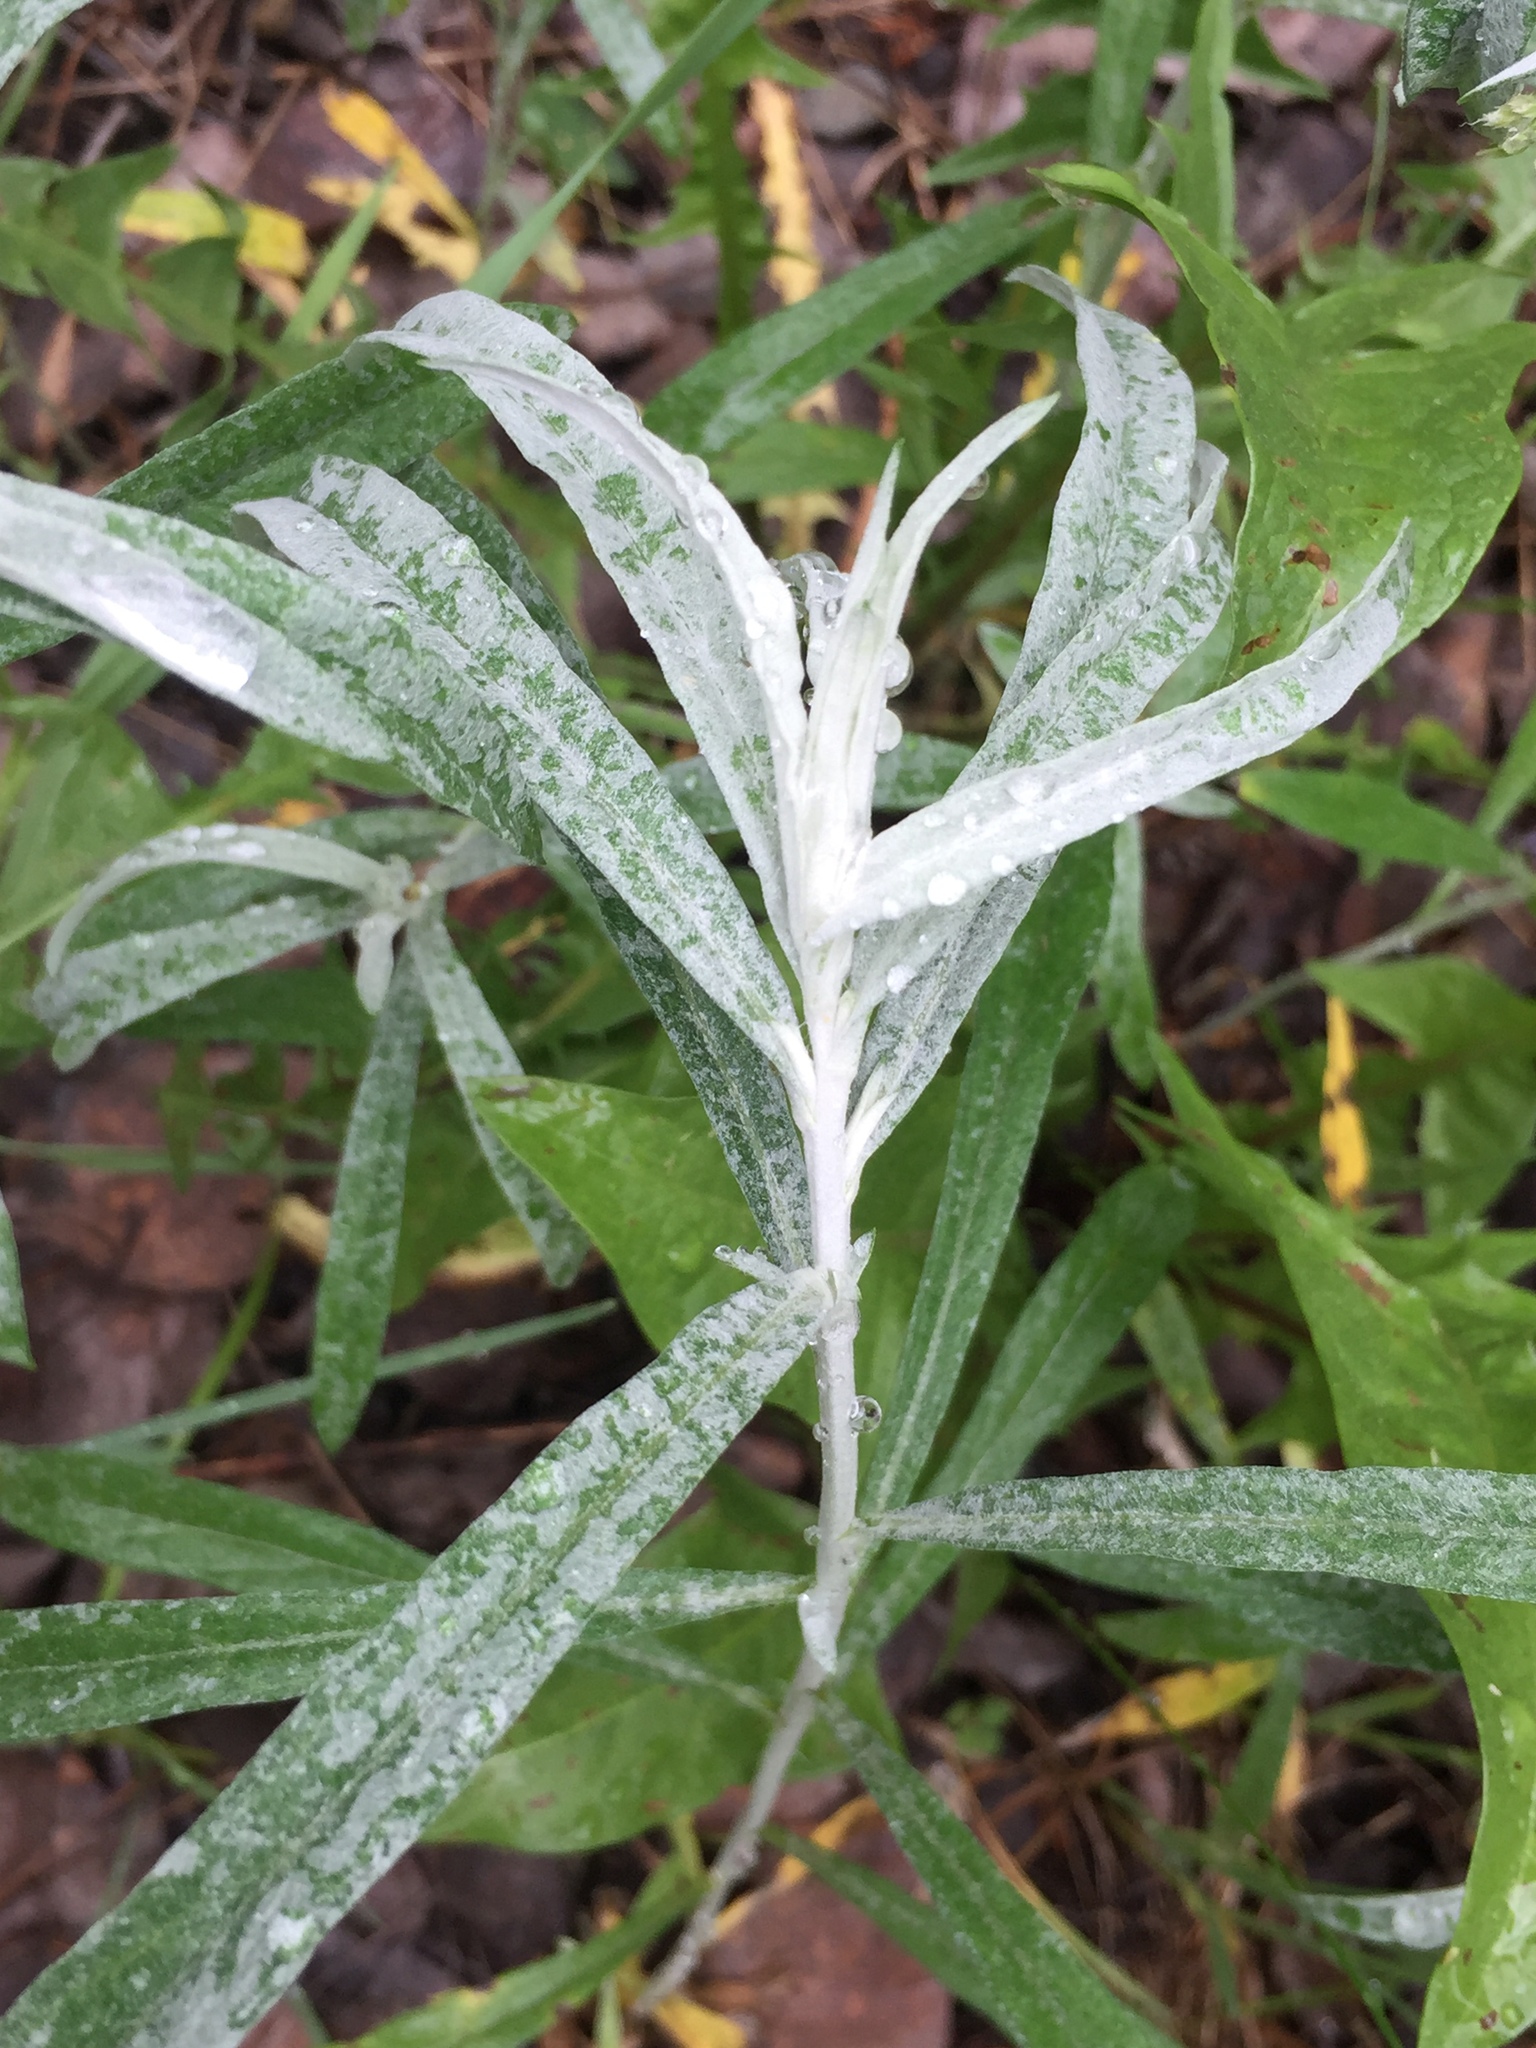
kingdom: Plantae
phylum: Tracheophyta
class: Magnoliopsida
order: Asterales
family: Asteraceae
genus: Artemisia
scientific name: Artemisia ludoviciana
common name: Western mugwort
